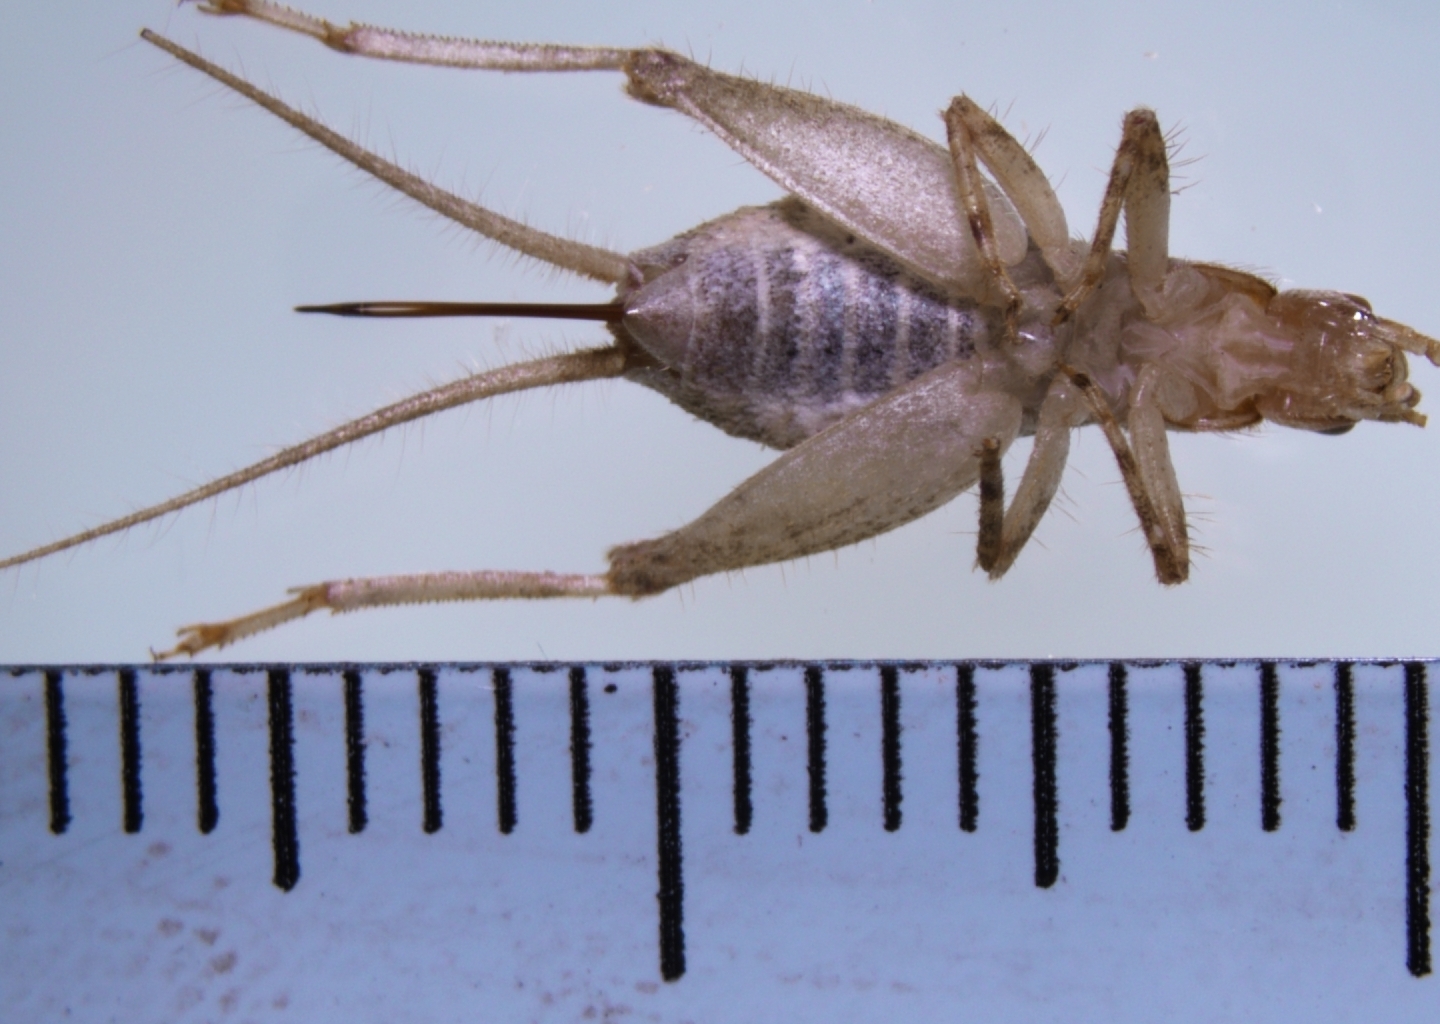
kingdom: Animalia
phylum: Arthropoda
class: Insecta
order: Orthoptera
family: Mogoplistidae
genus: Ornebius
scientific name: Ornebius novarae
